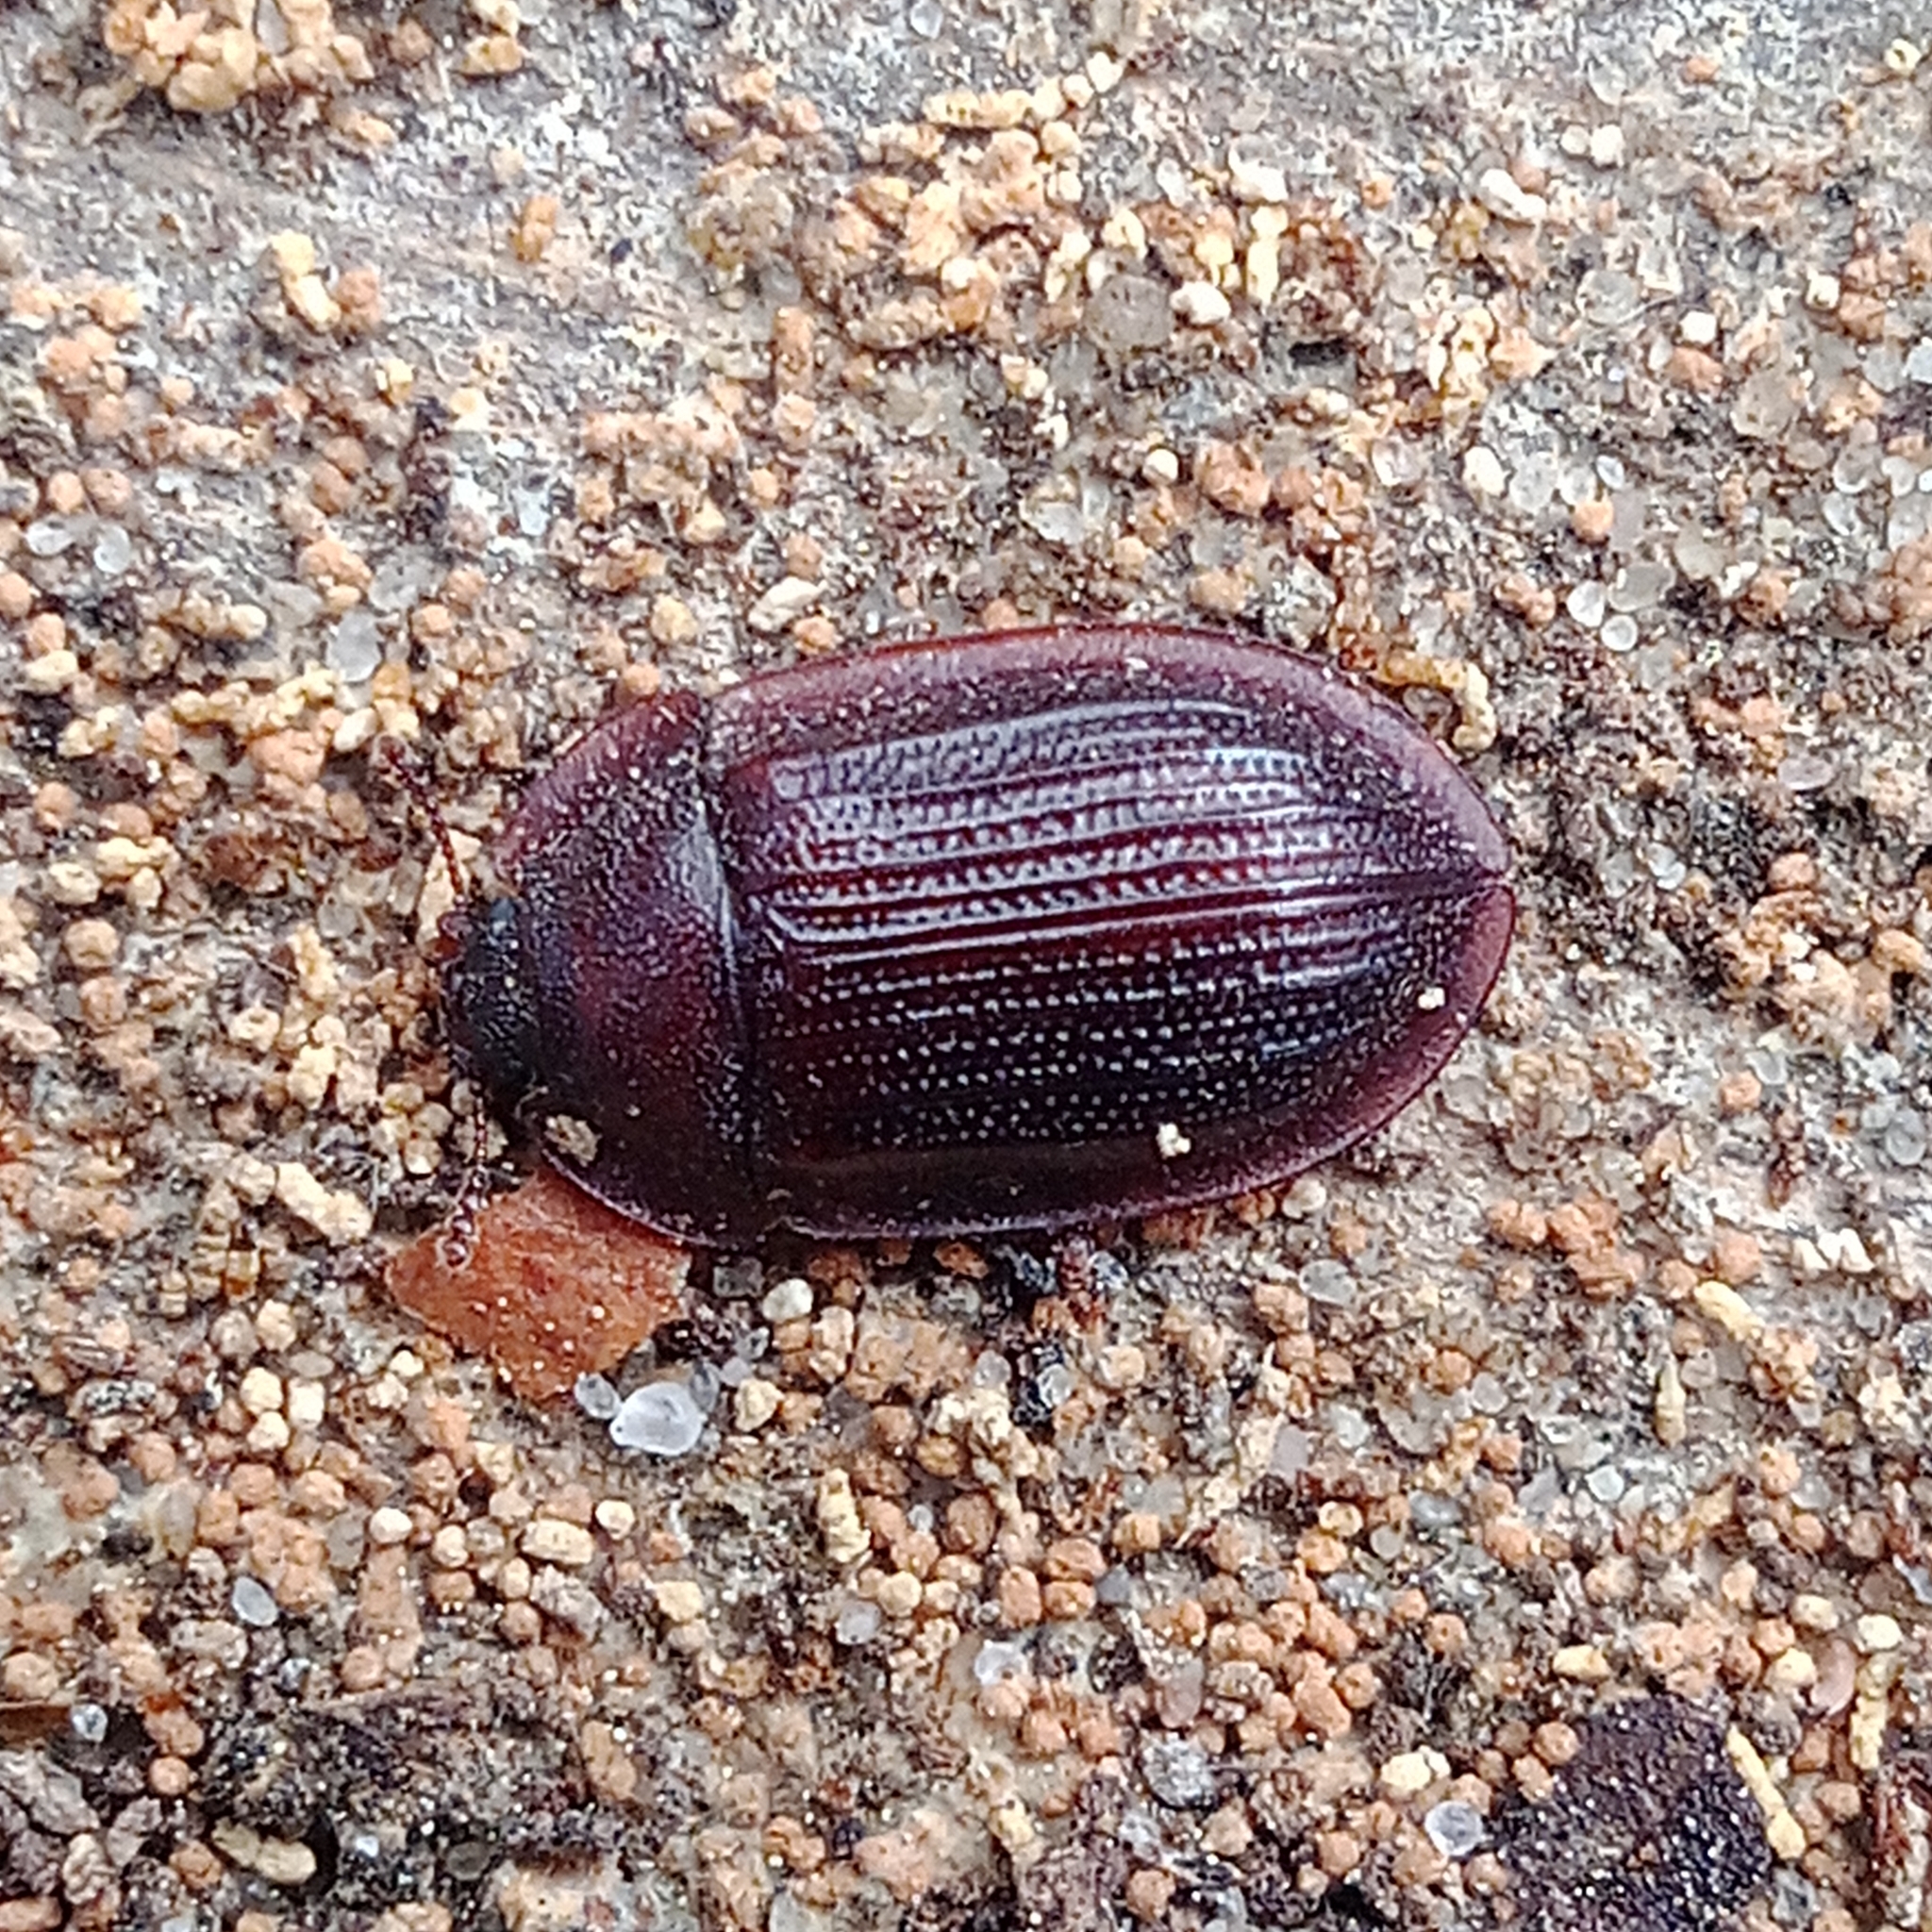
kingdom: Animalia
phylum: Arthropoda
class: Insecta
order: Coleoptera
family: Trogossitidae
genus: Peltis
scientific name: Peltis ferruginea
